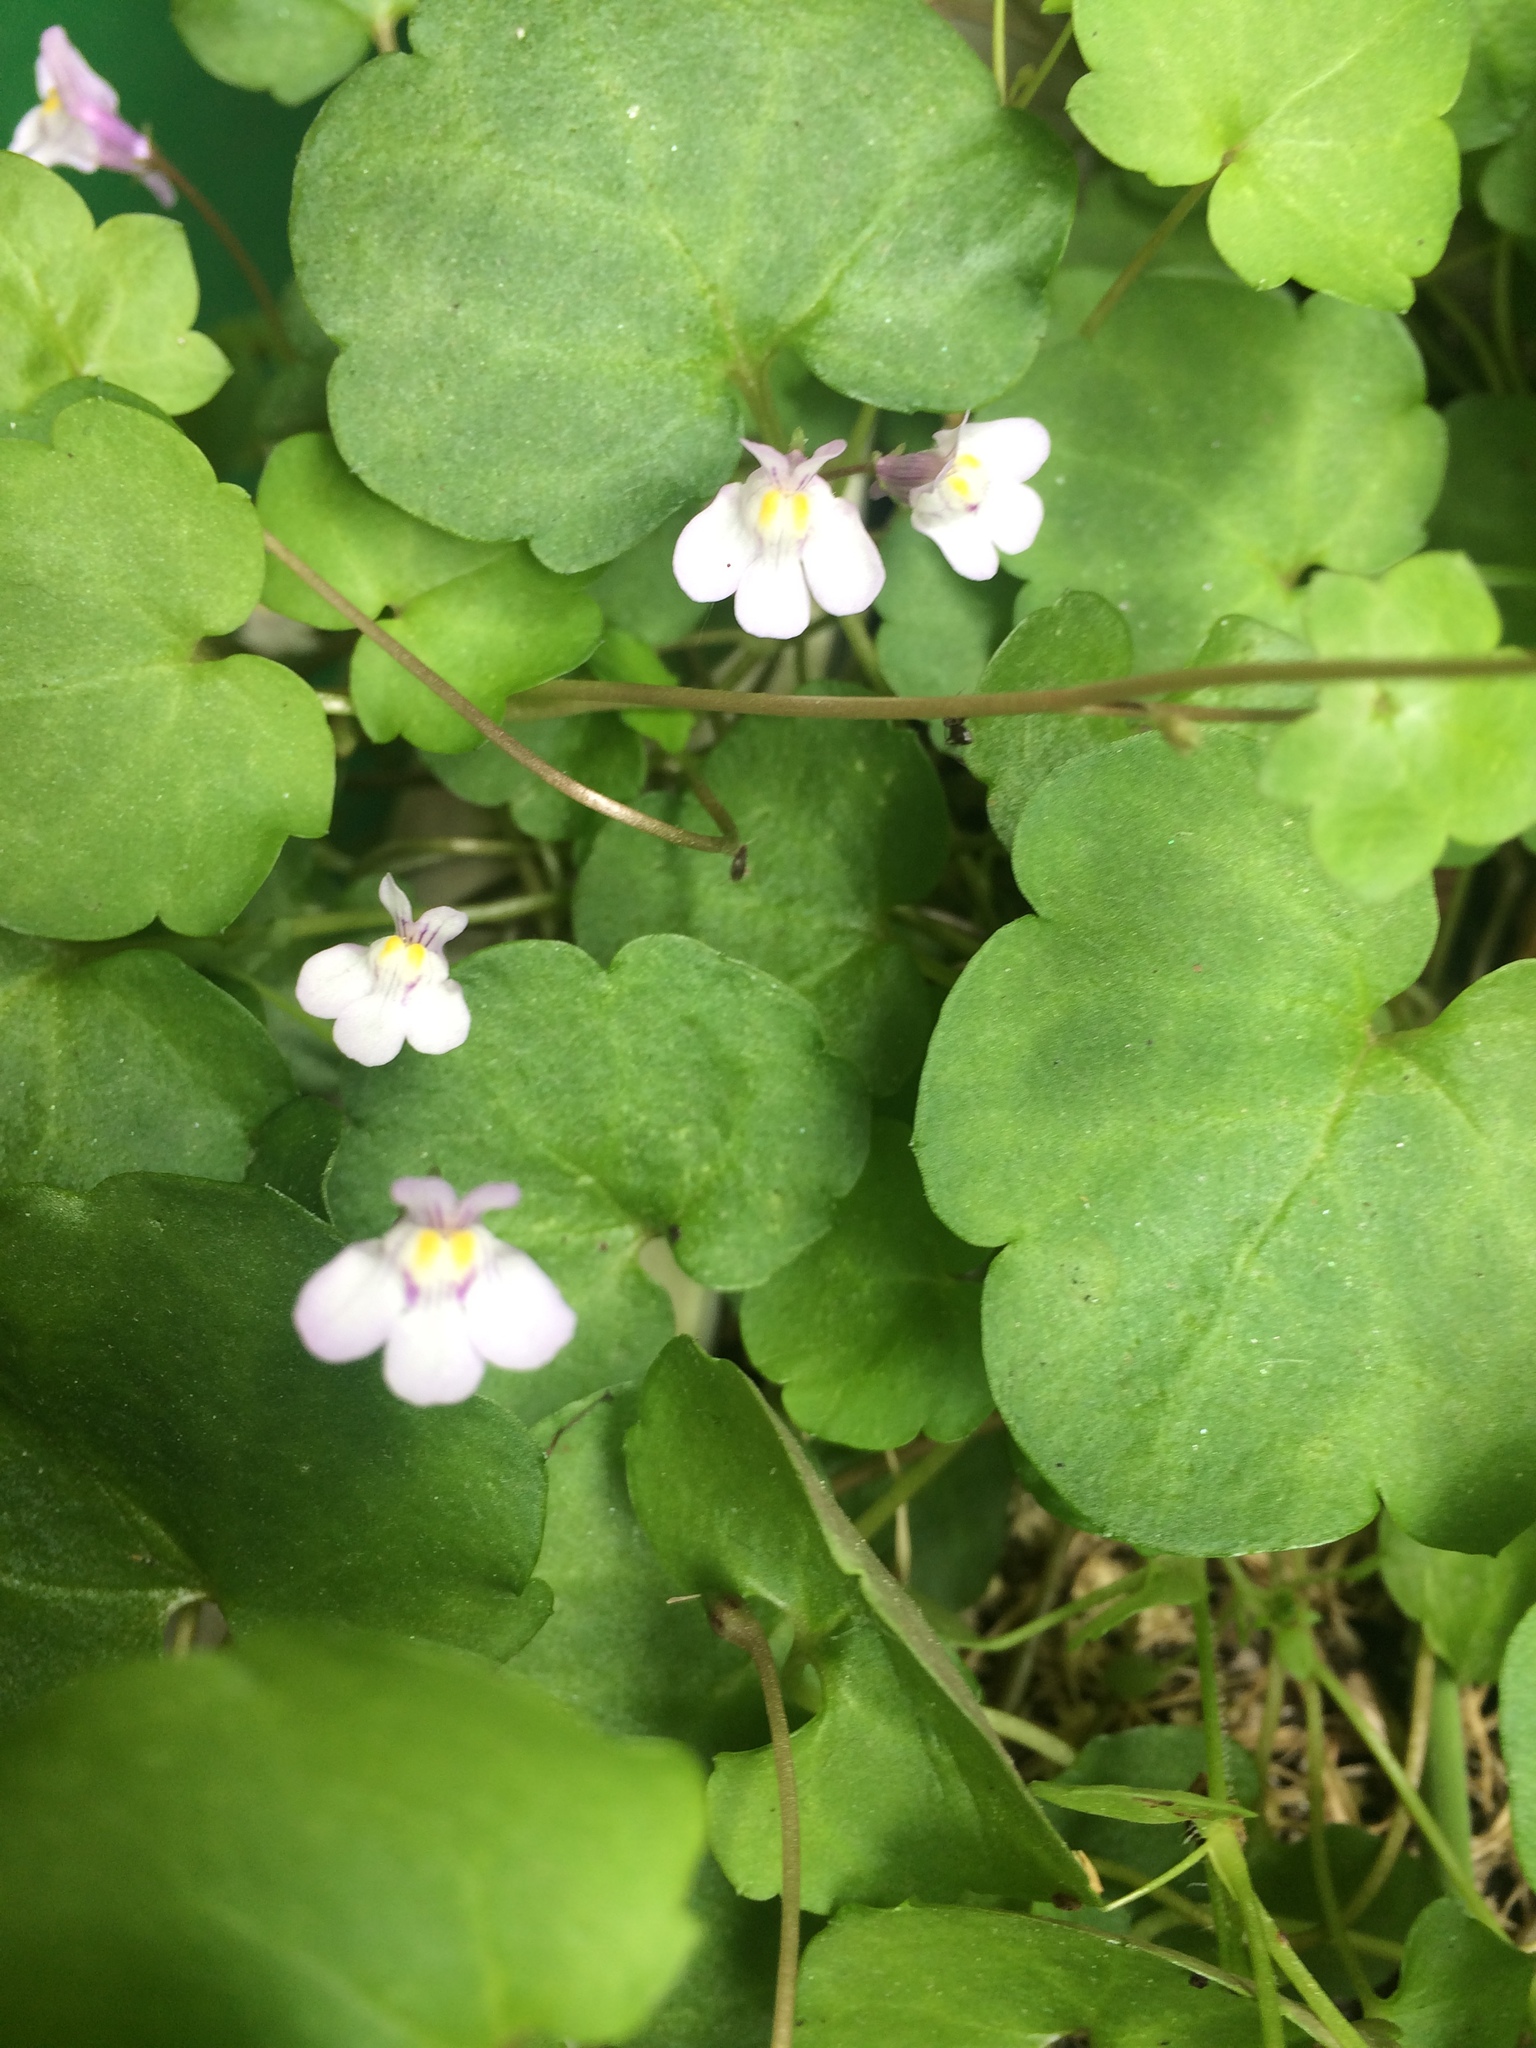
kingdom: Plantae
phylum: Tracheophyta
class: Magnoliopsida
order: Lamiales
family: Plantaginaceae
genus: Cymbalaria
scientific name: Cymbalaria muralis
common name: Ivy-leaved toadflax
